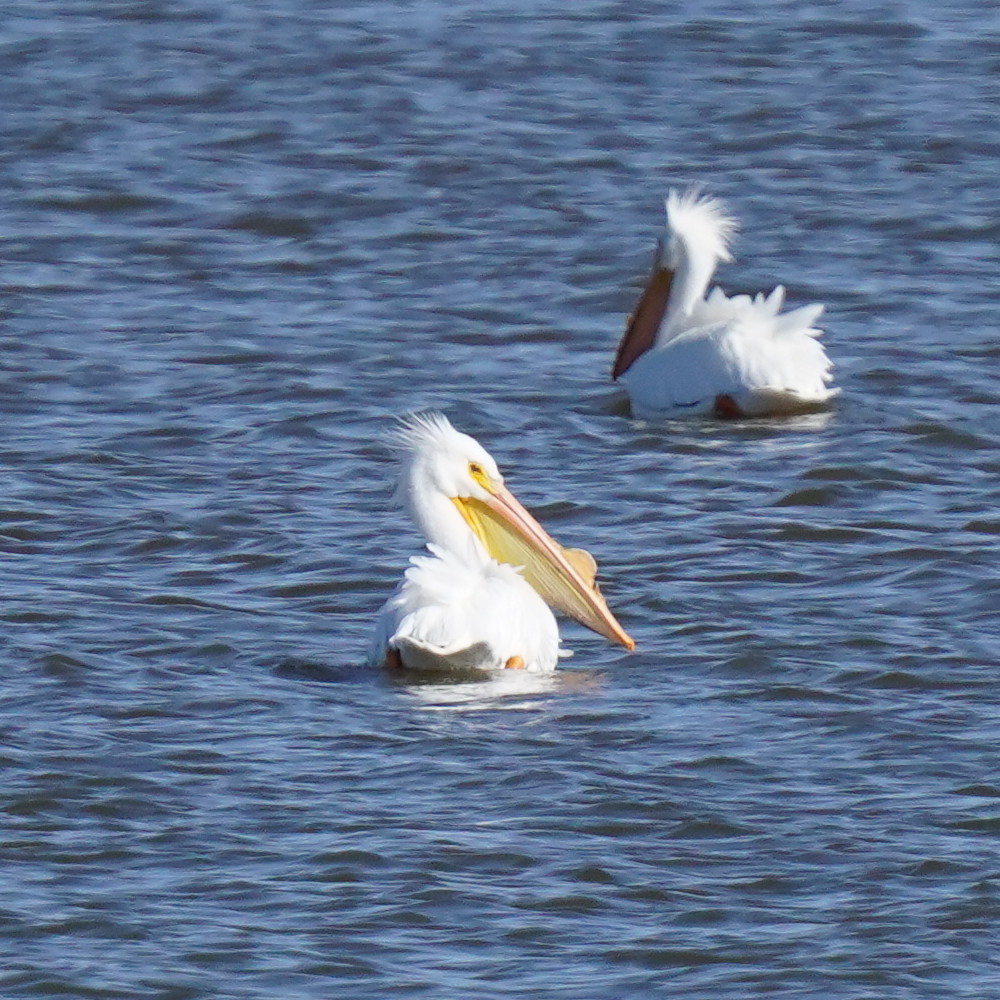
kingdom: Animalia
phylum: Chordata
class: Aves
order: Pelecaniformes
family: Pelecanidae
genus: Pelecanus
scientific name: Pelecanus erythrorhynchos
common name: American white pelican
